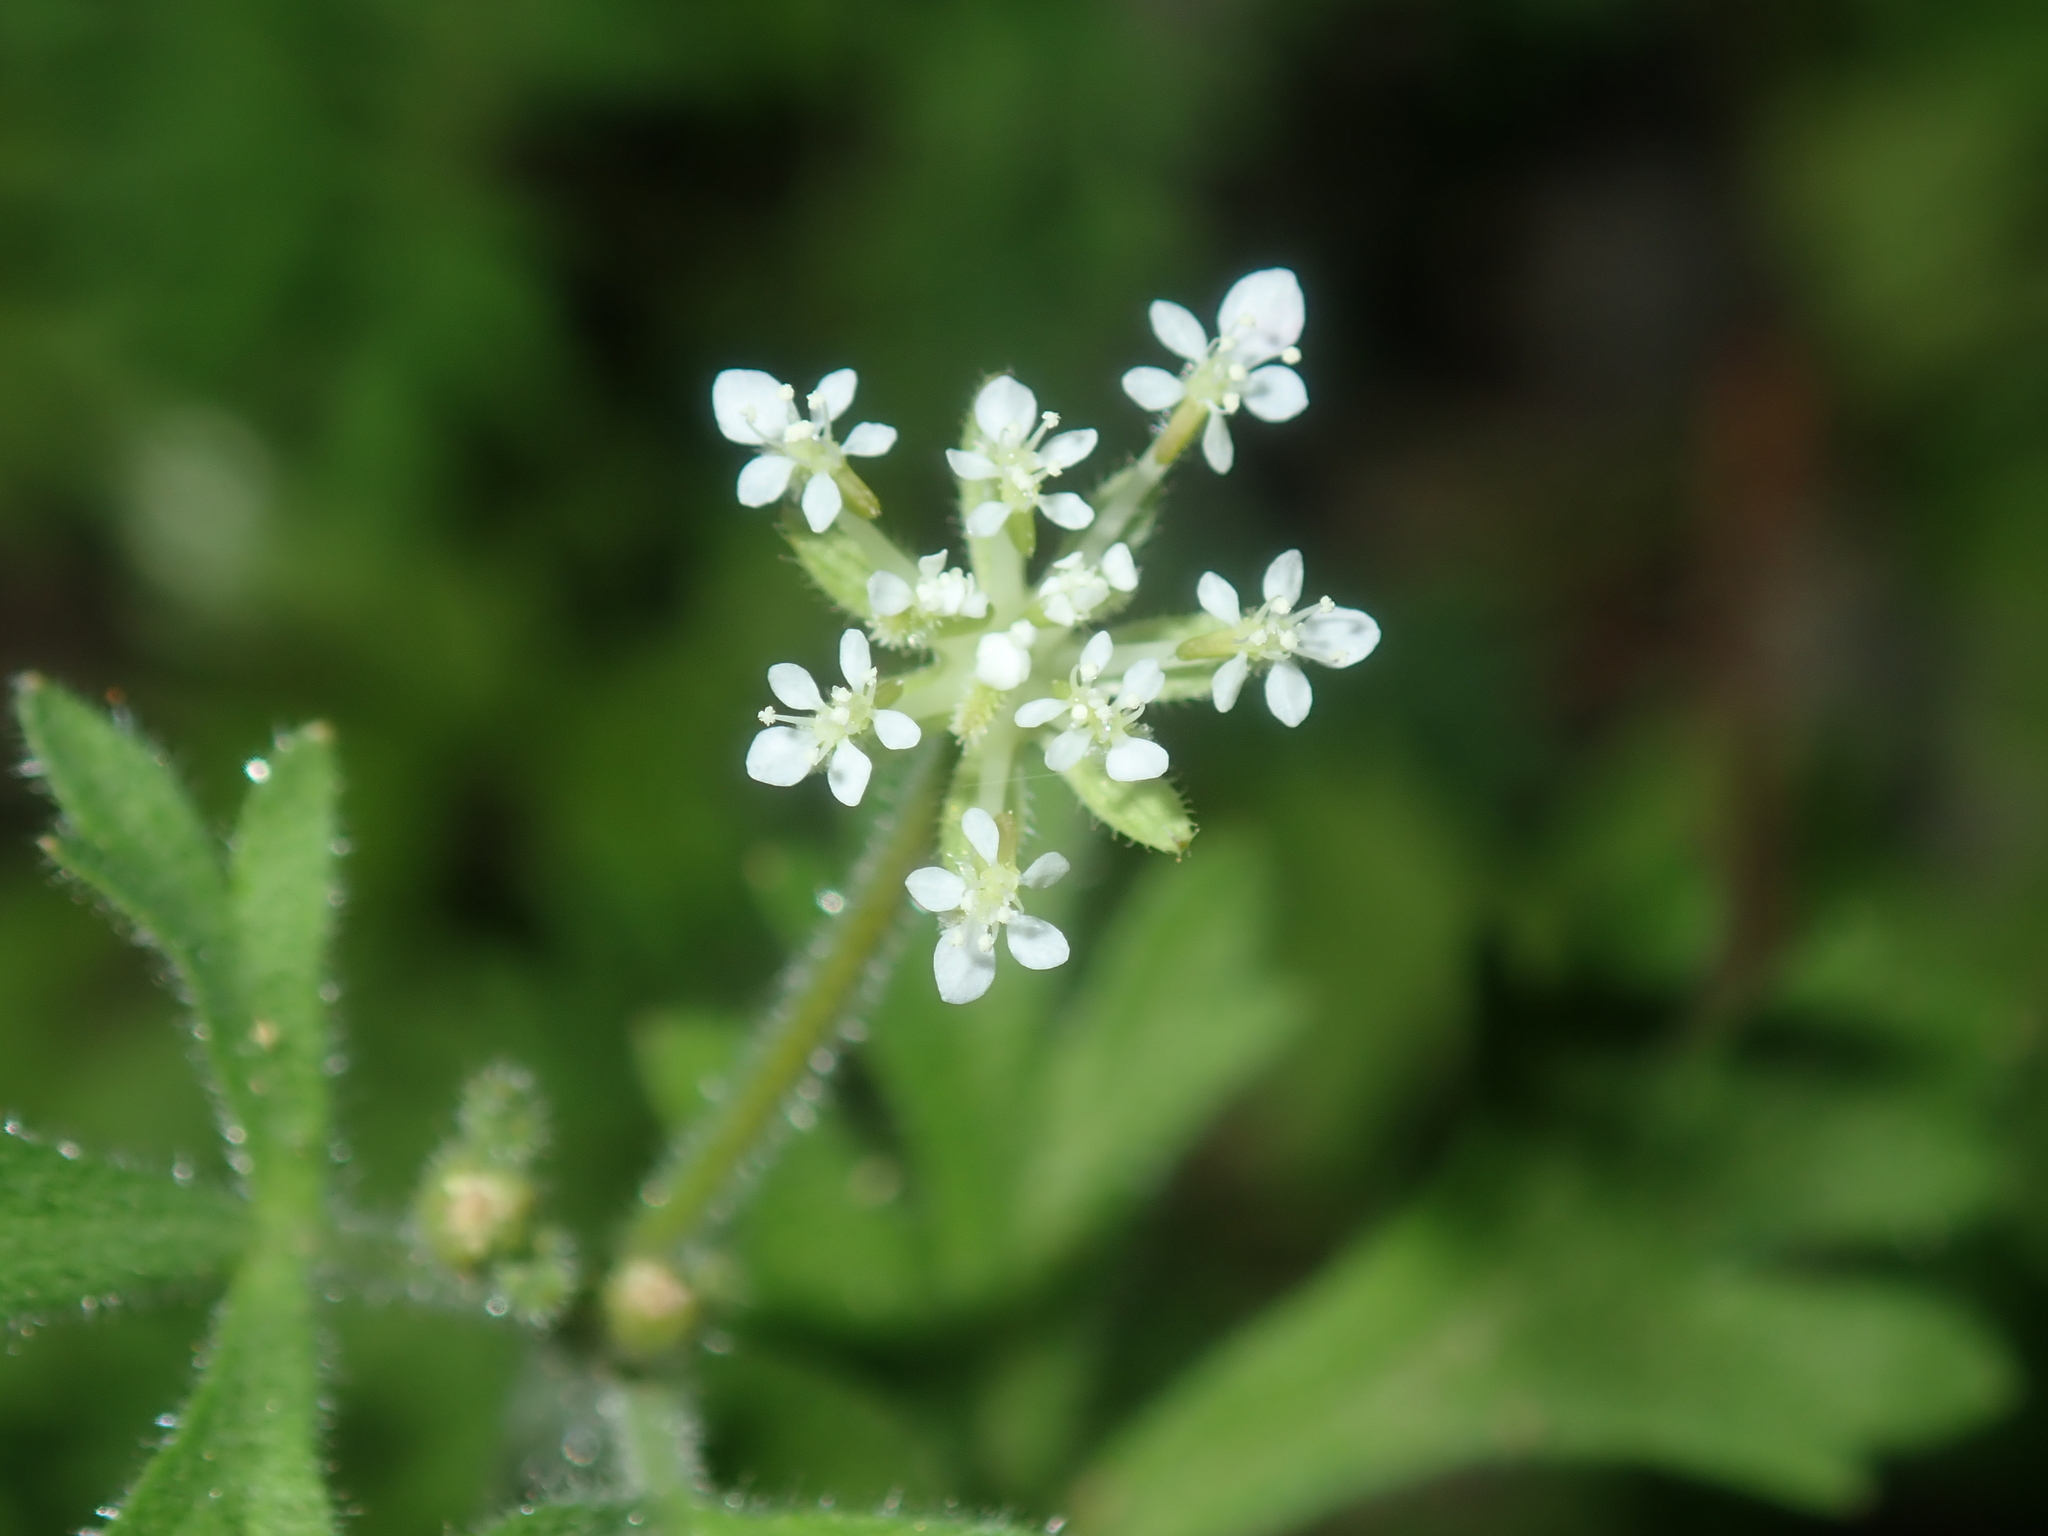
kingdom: Plantae
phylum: Tracheophyta
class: Magnoliopsida
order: Apiales
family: Araliaceae
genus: Trachymene
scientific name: Trachymene pilosa
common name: Dwarf trachymene
